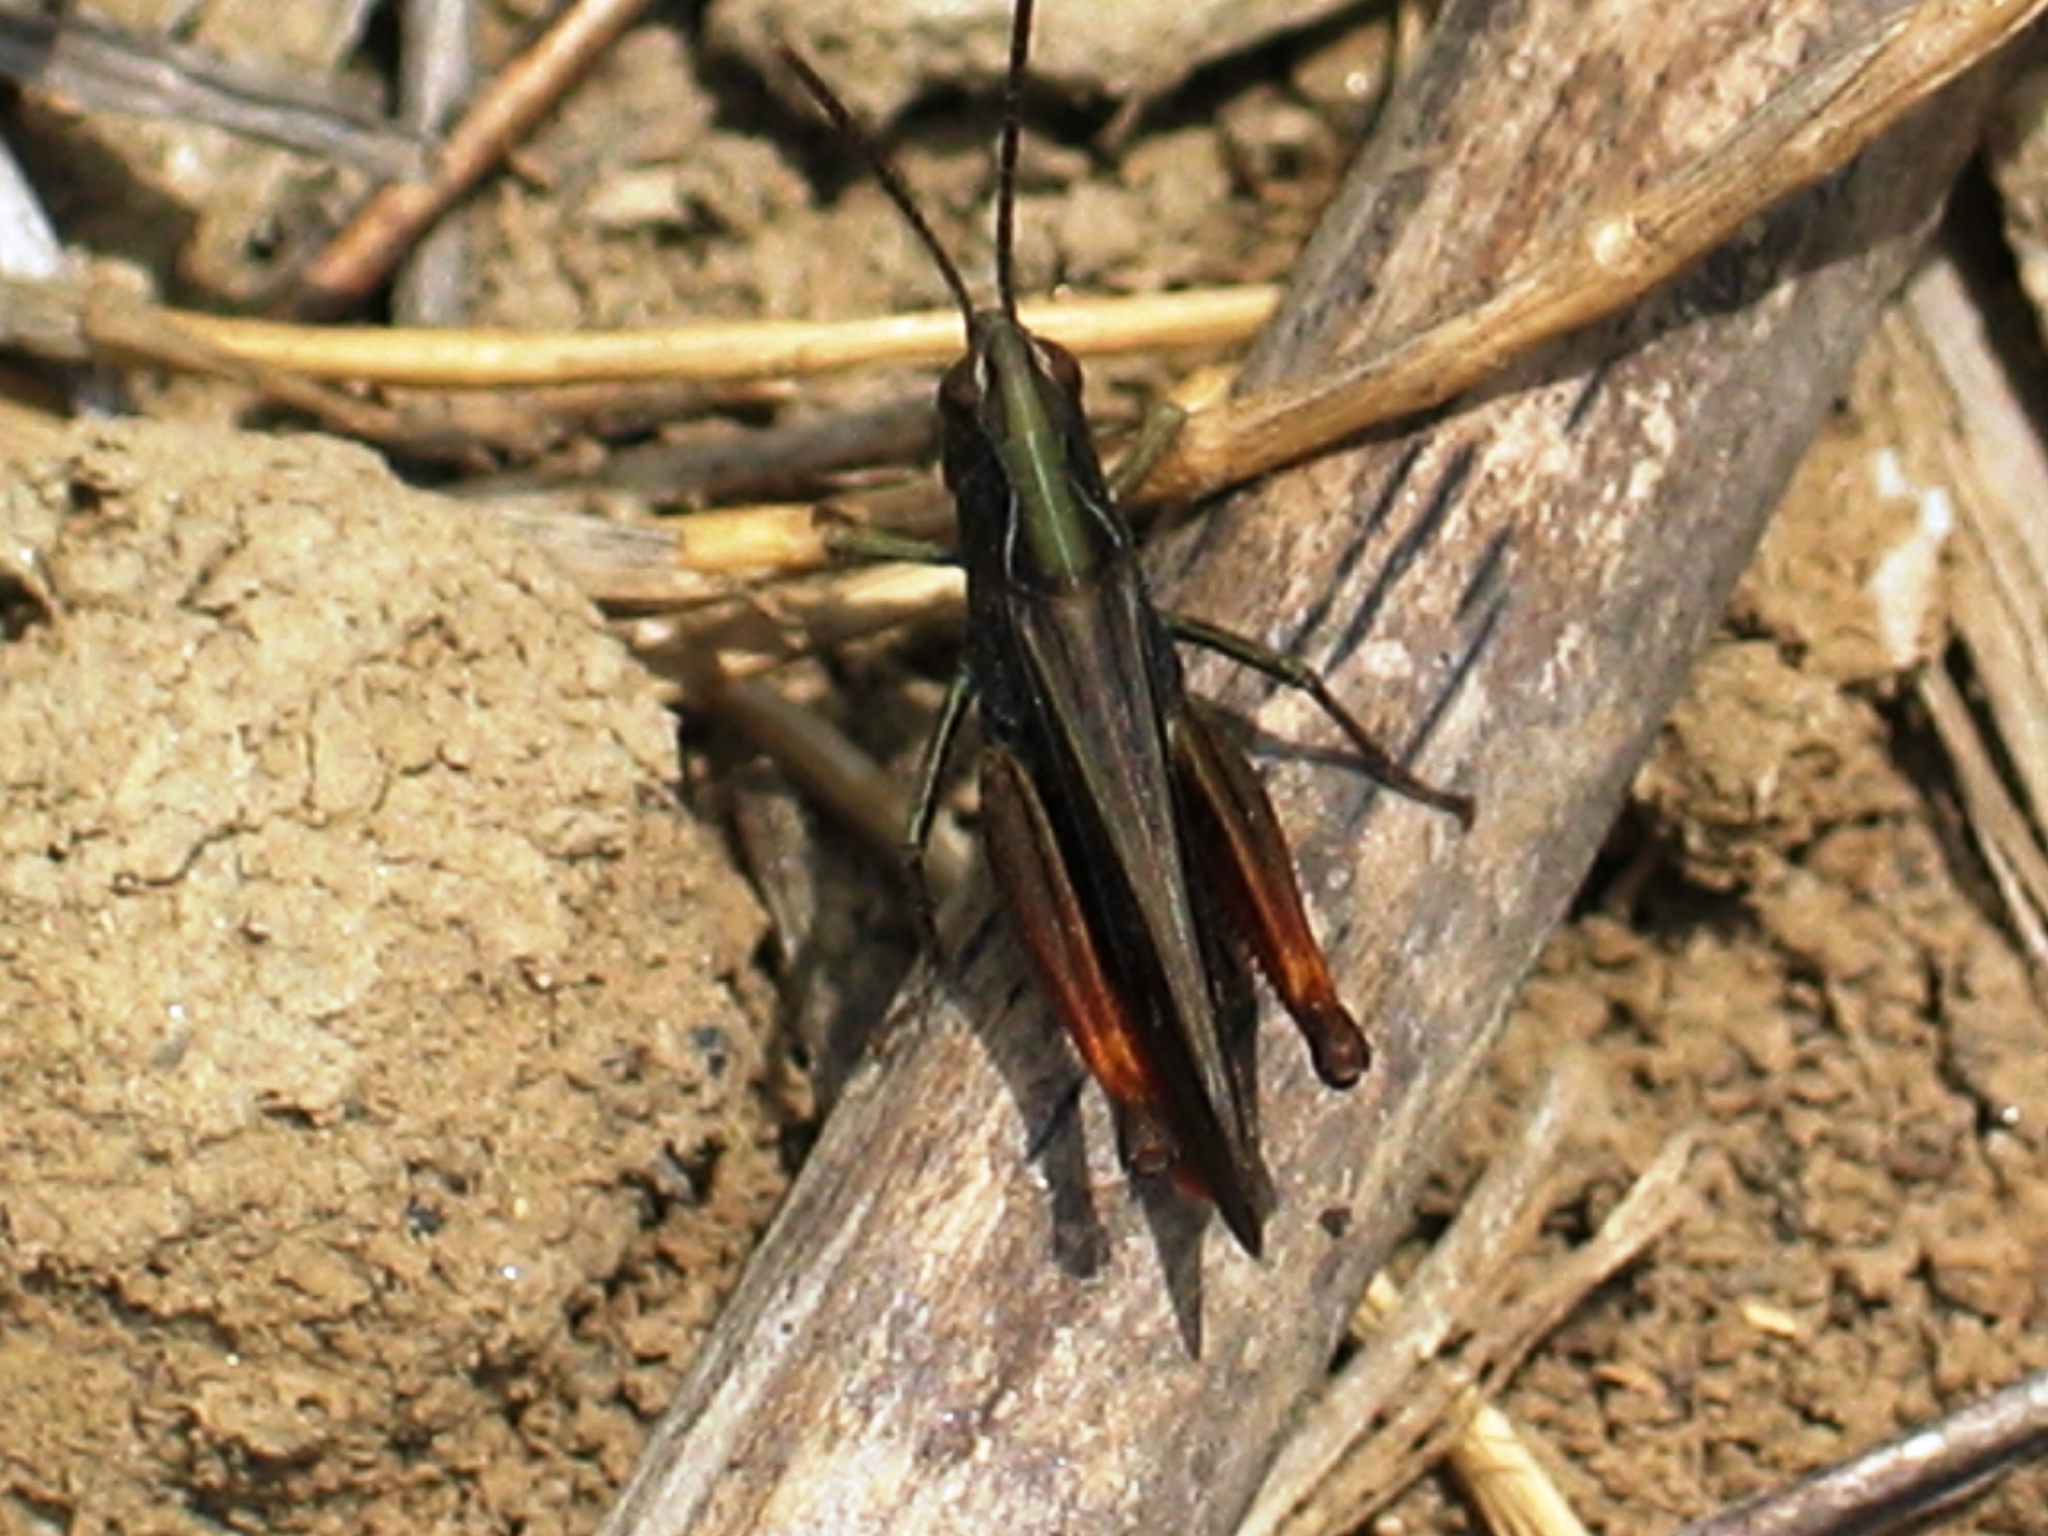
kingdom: Animalia
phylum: Arthropoda
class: Insecta
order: Orthoptera
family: Acrididae
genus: Omocestus
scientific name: Omocestus rufipes
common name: Woodland grasshopper
